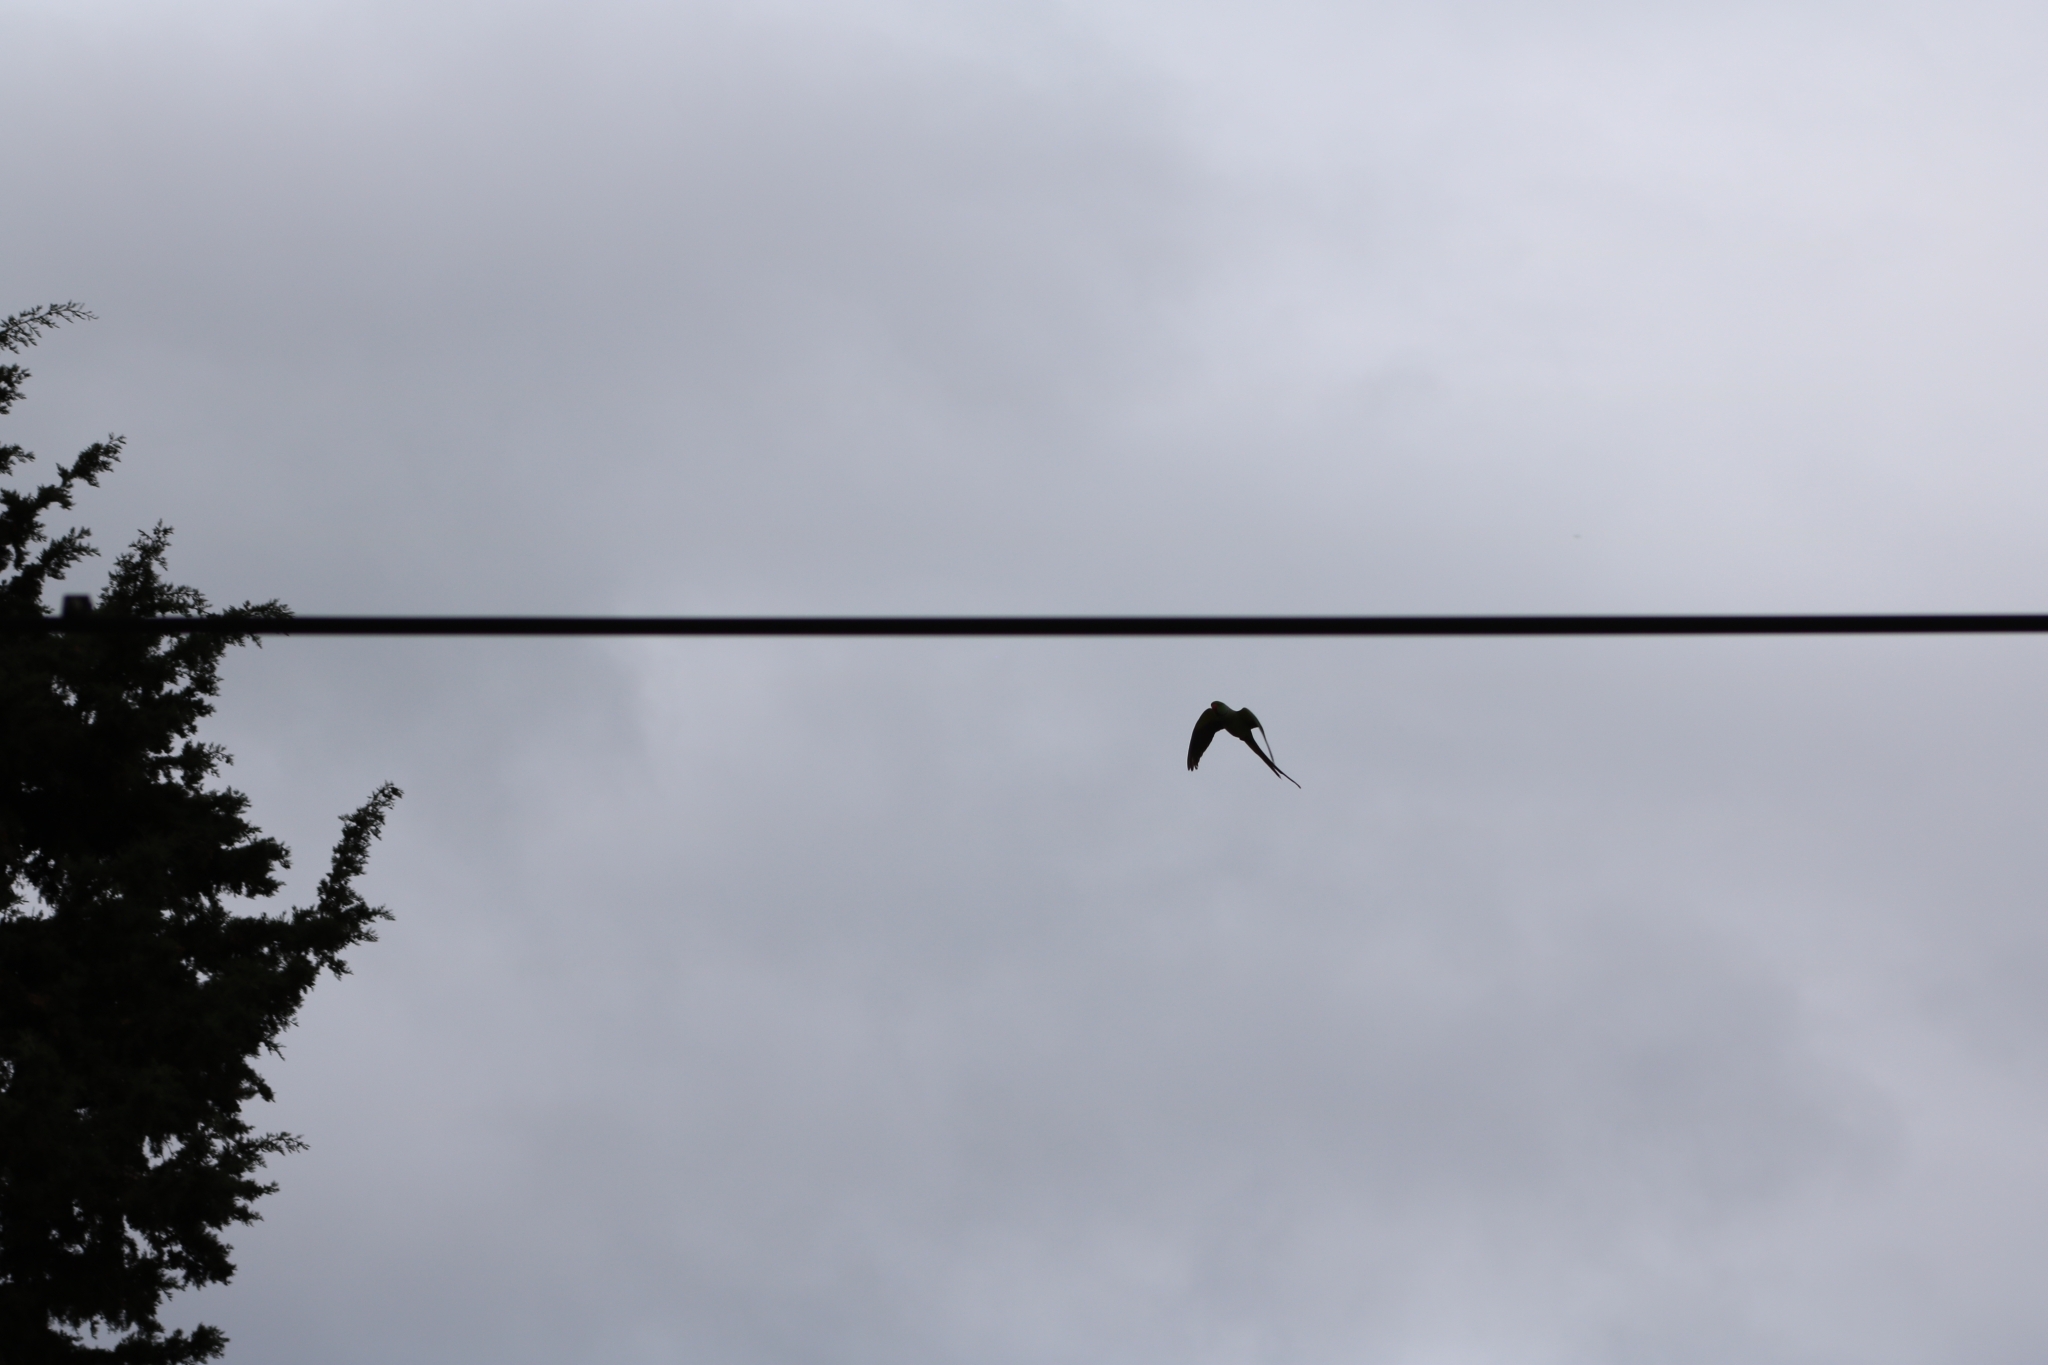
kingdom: Animalia
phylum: Chordata
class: Aves
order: Psittaciformes
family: Psittacidae
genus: Psittacula
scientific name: Psittacula krameri
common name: Rose-ringed parakeet
